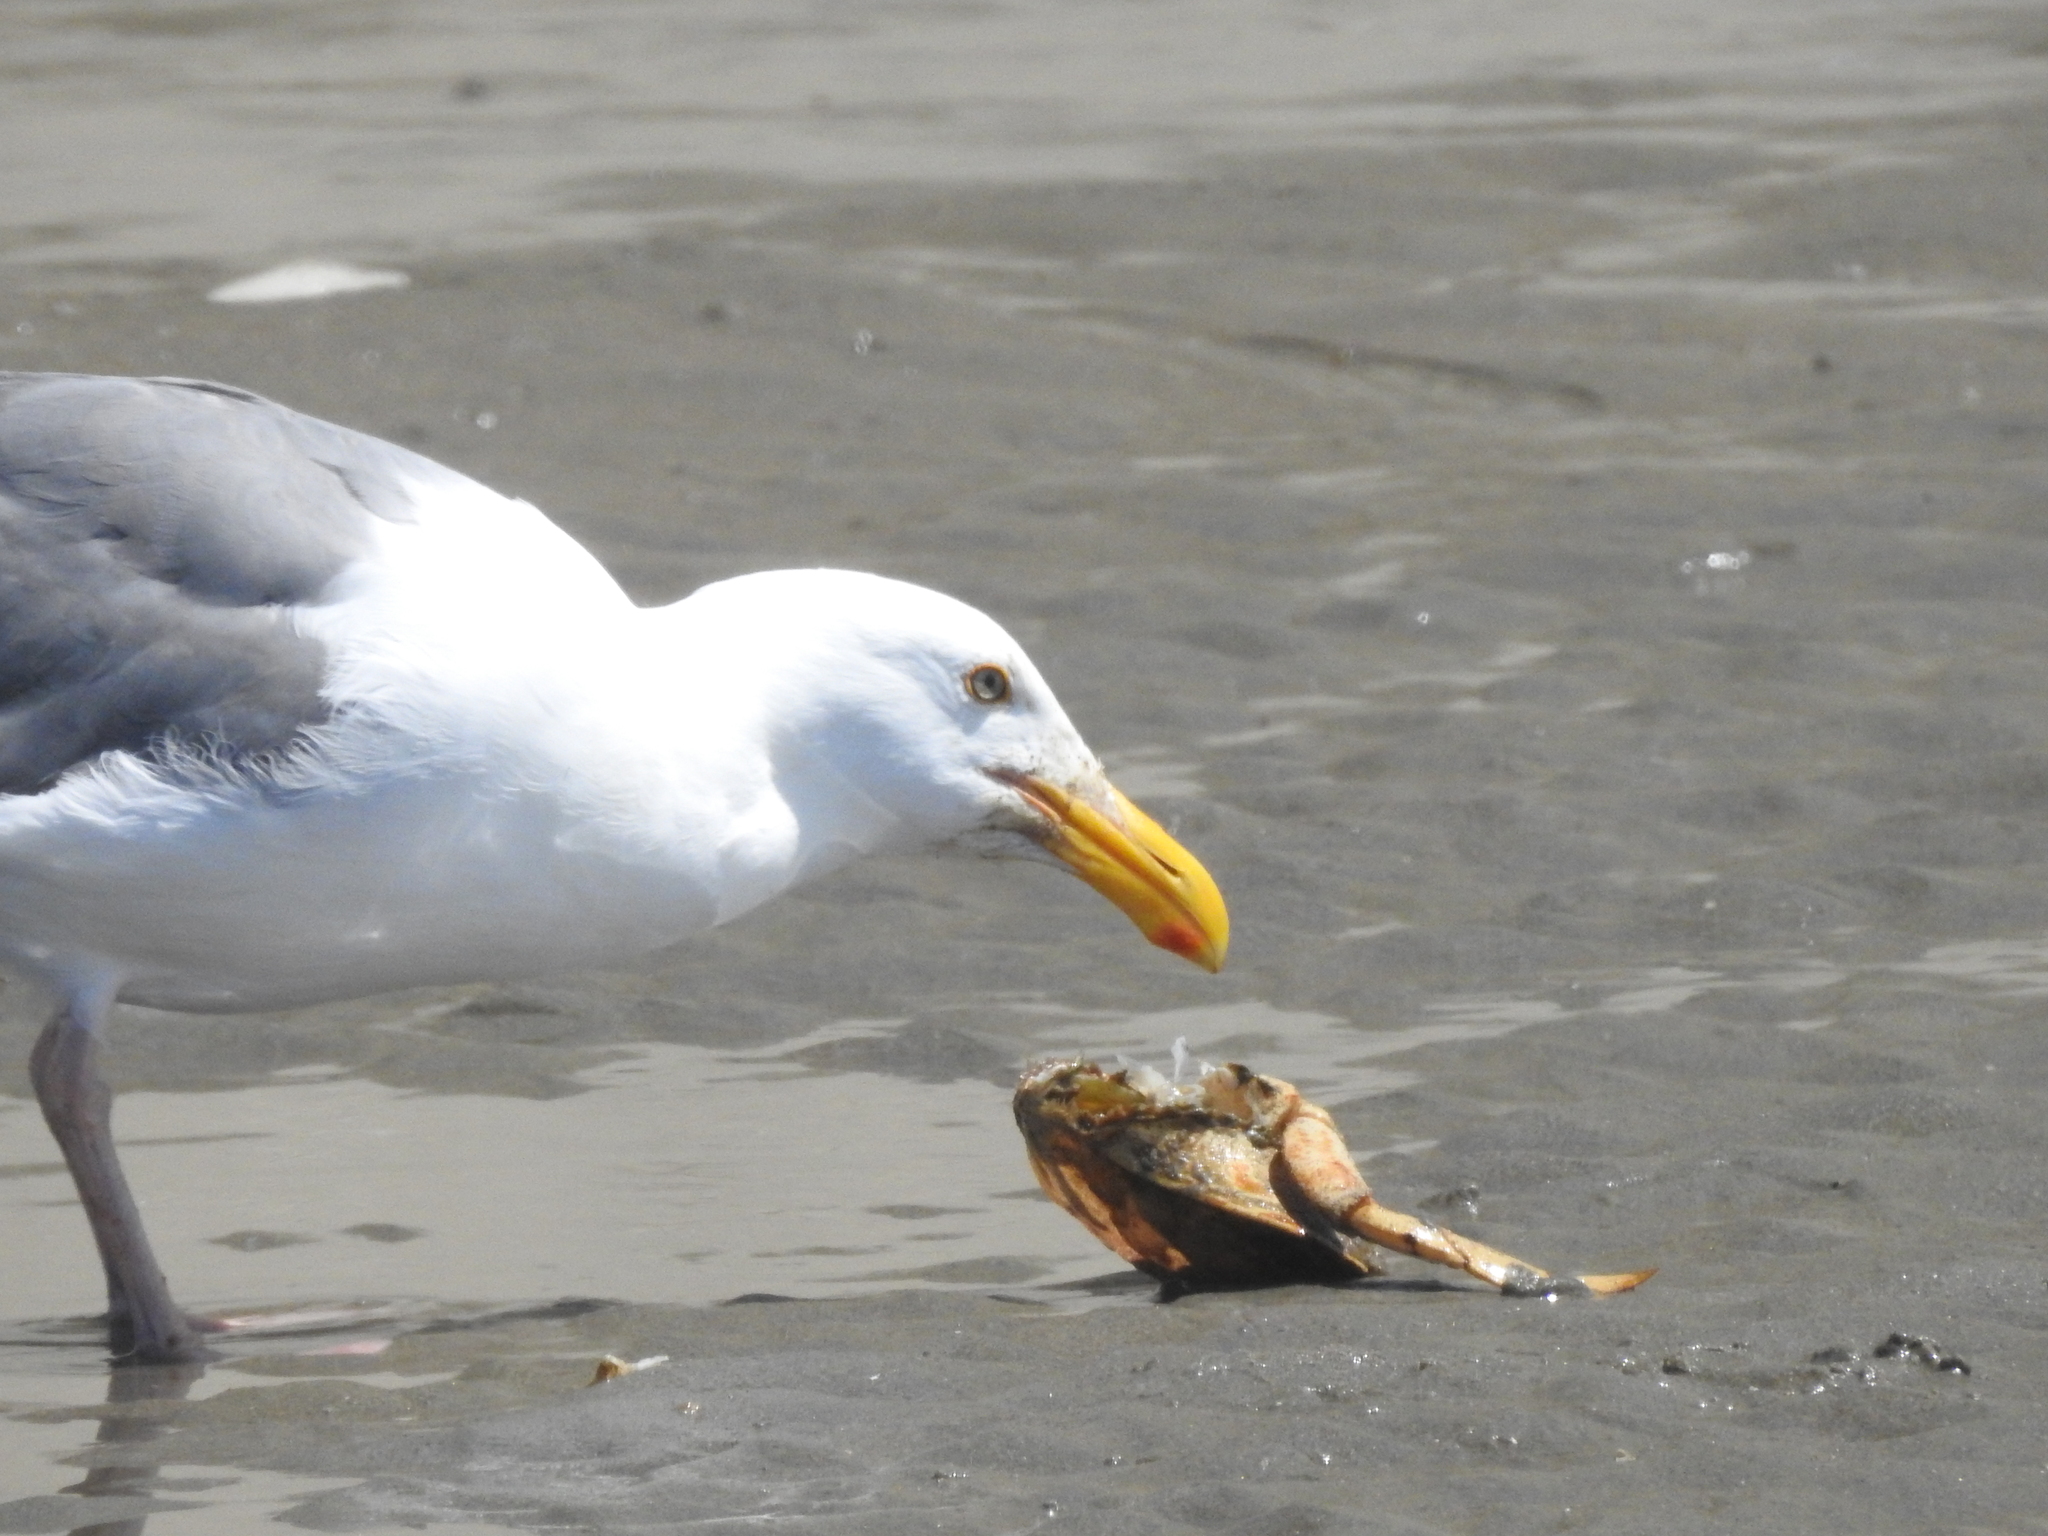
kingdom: Animalia
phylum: Chordata
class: Aves
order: Charadriiformes
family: Laridae
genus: Larus
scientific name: Larus occidentalis
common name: Western gull
